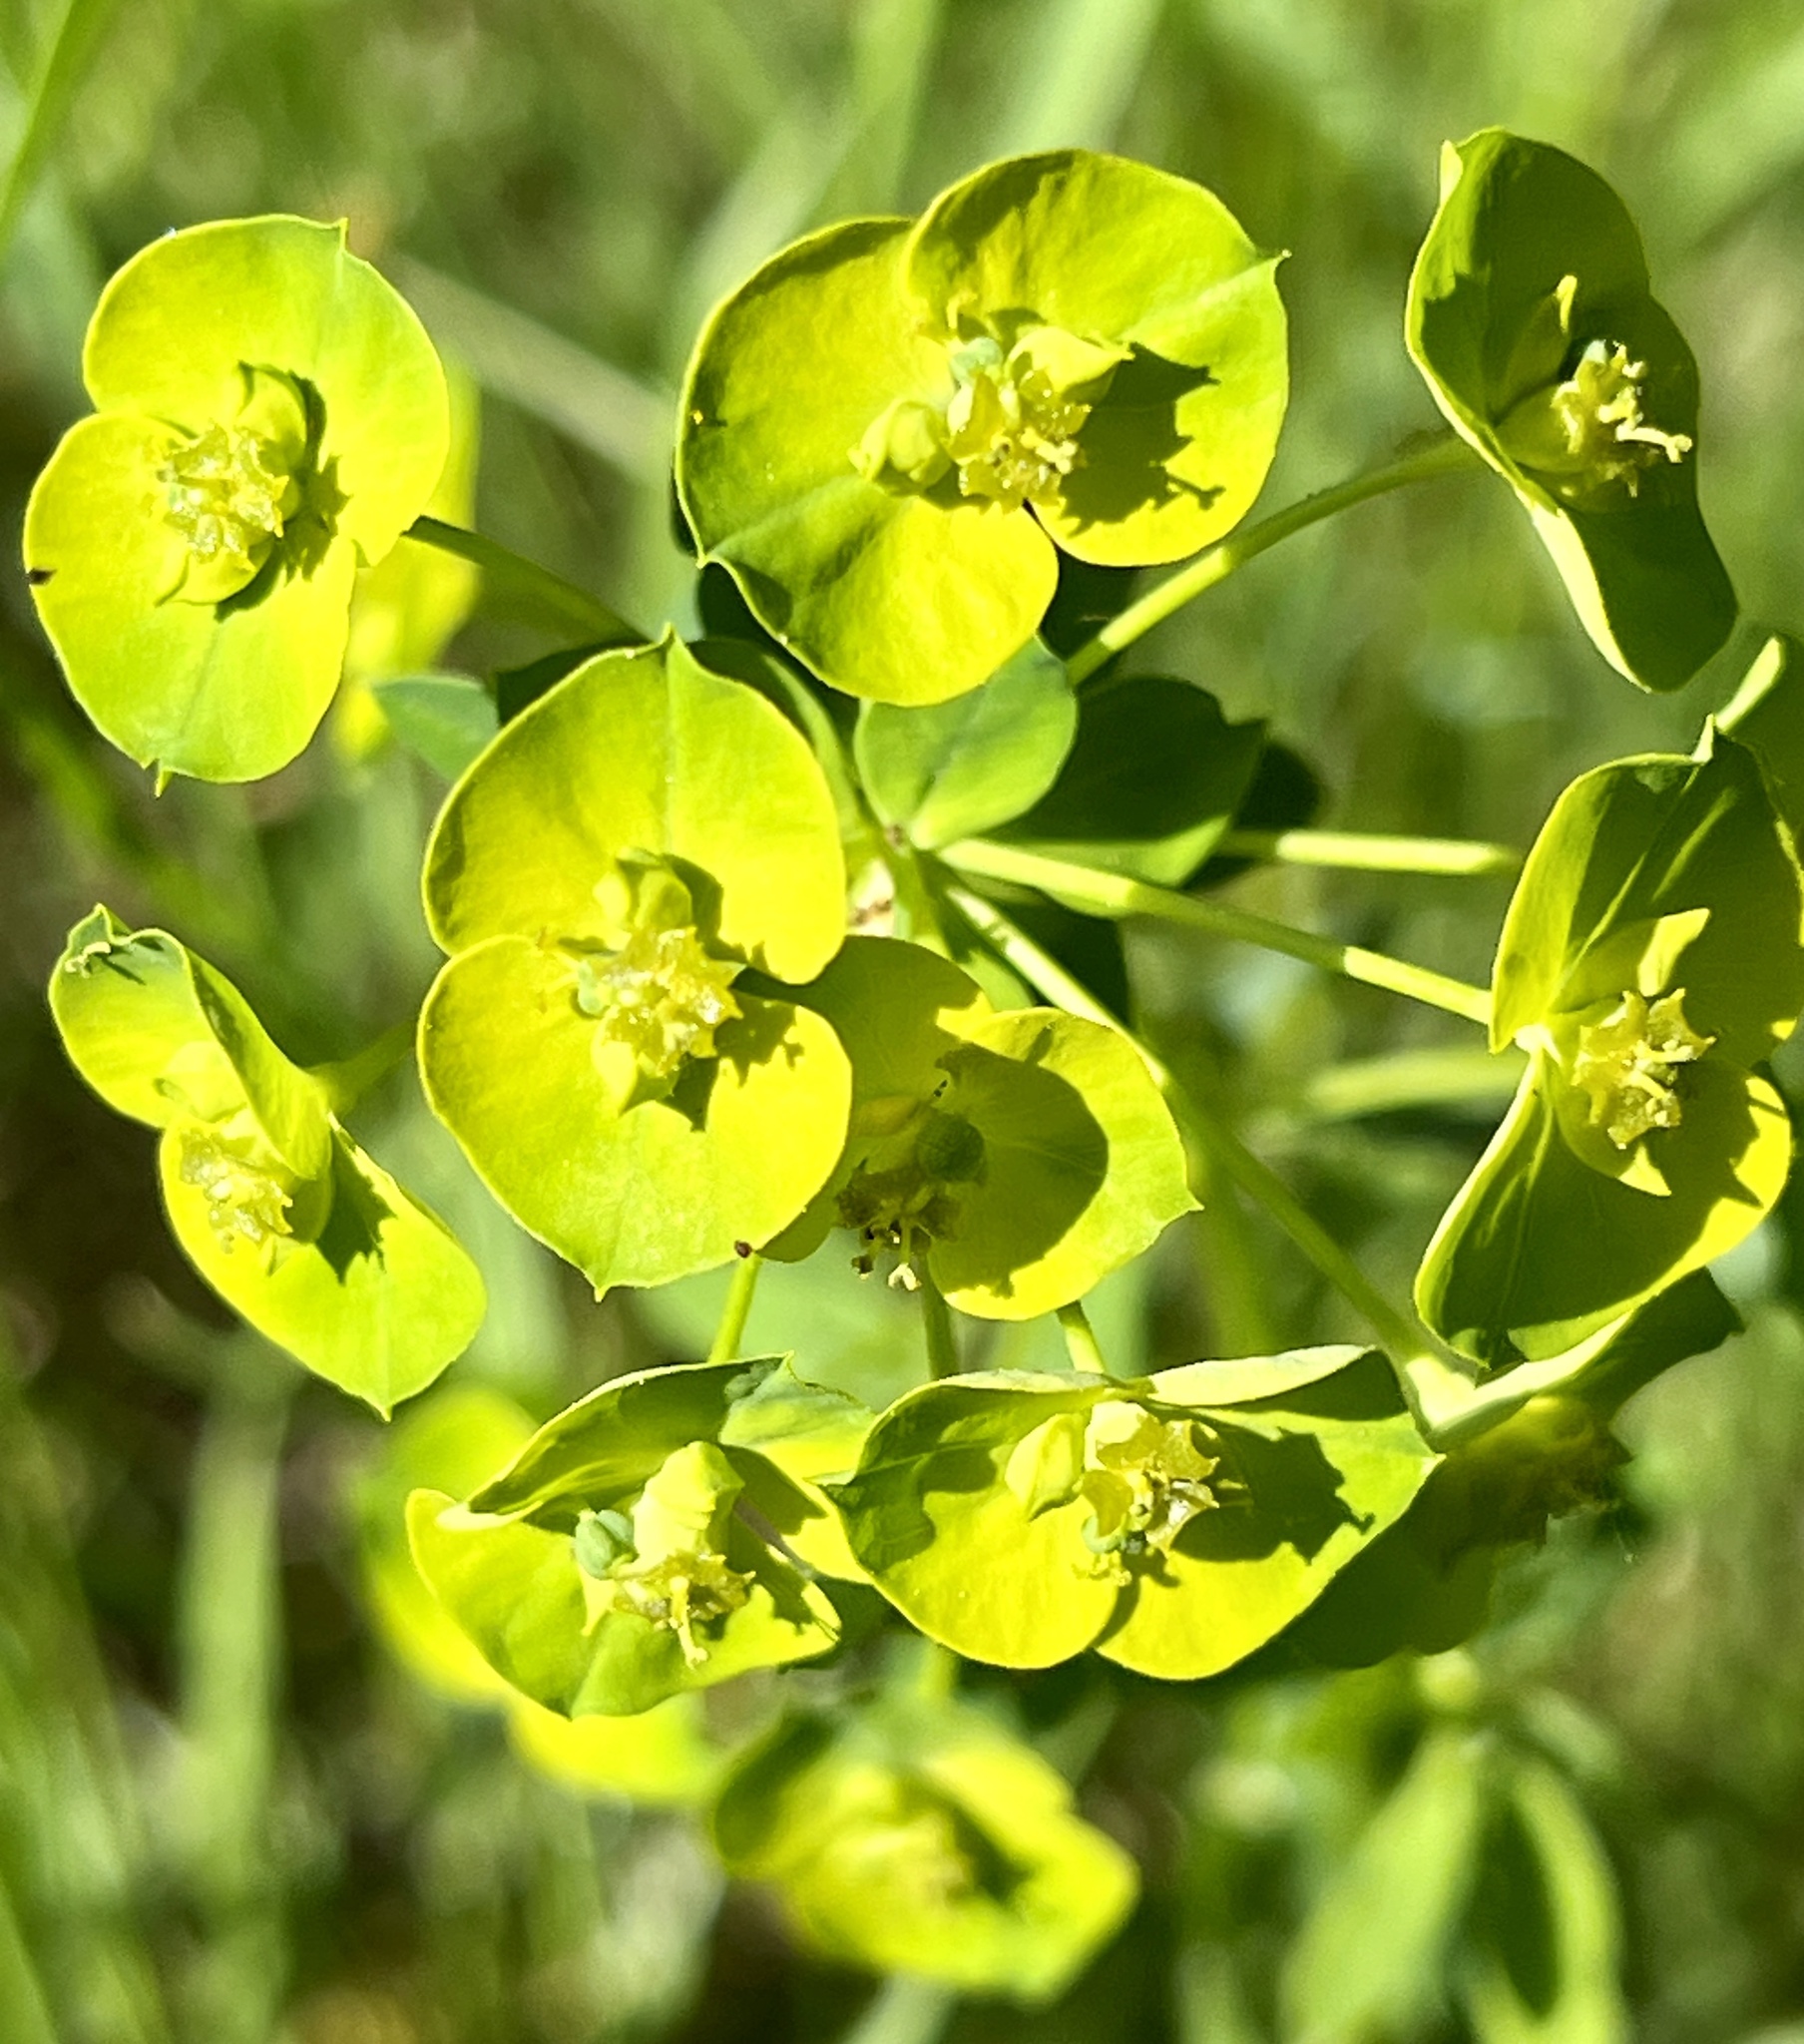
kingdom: Plantae
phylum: Tracheophyta
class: Magnoliopsida
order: Malpighiales
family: Euphorbiaceae
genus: Euphorbia
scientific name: Euphorbia esula
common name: Leafy spurge
